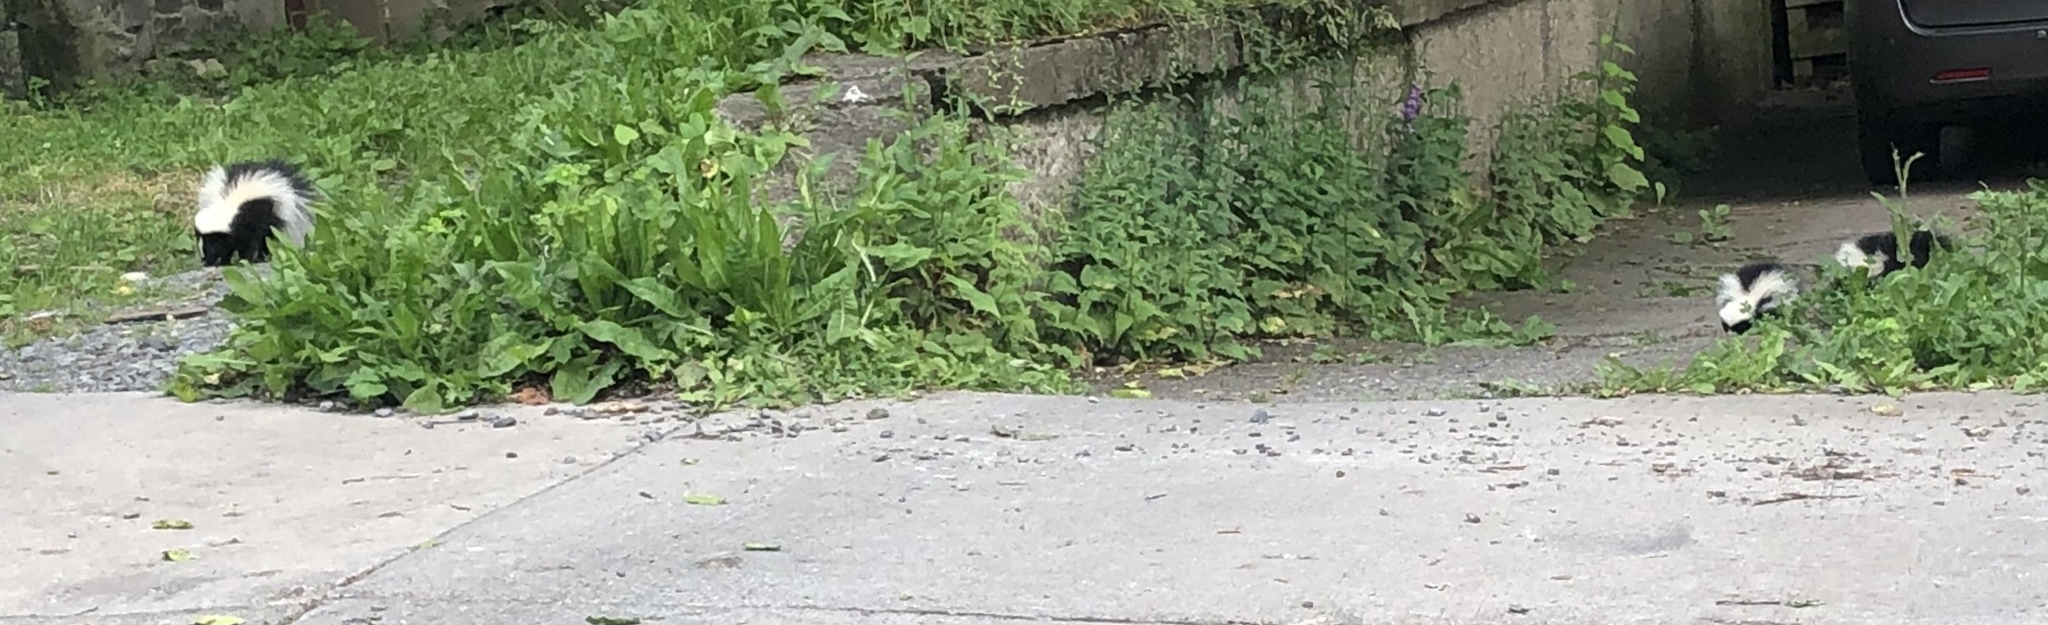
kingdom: Animalia
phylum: Chordata
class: Mammalia
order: Carnivora
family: Mephitidae
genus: Mephitis
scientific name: Mephitis mephitis
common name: Striped skunk
